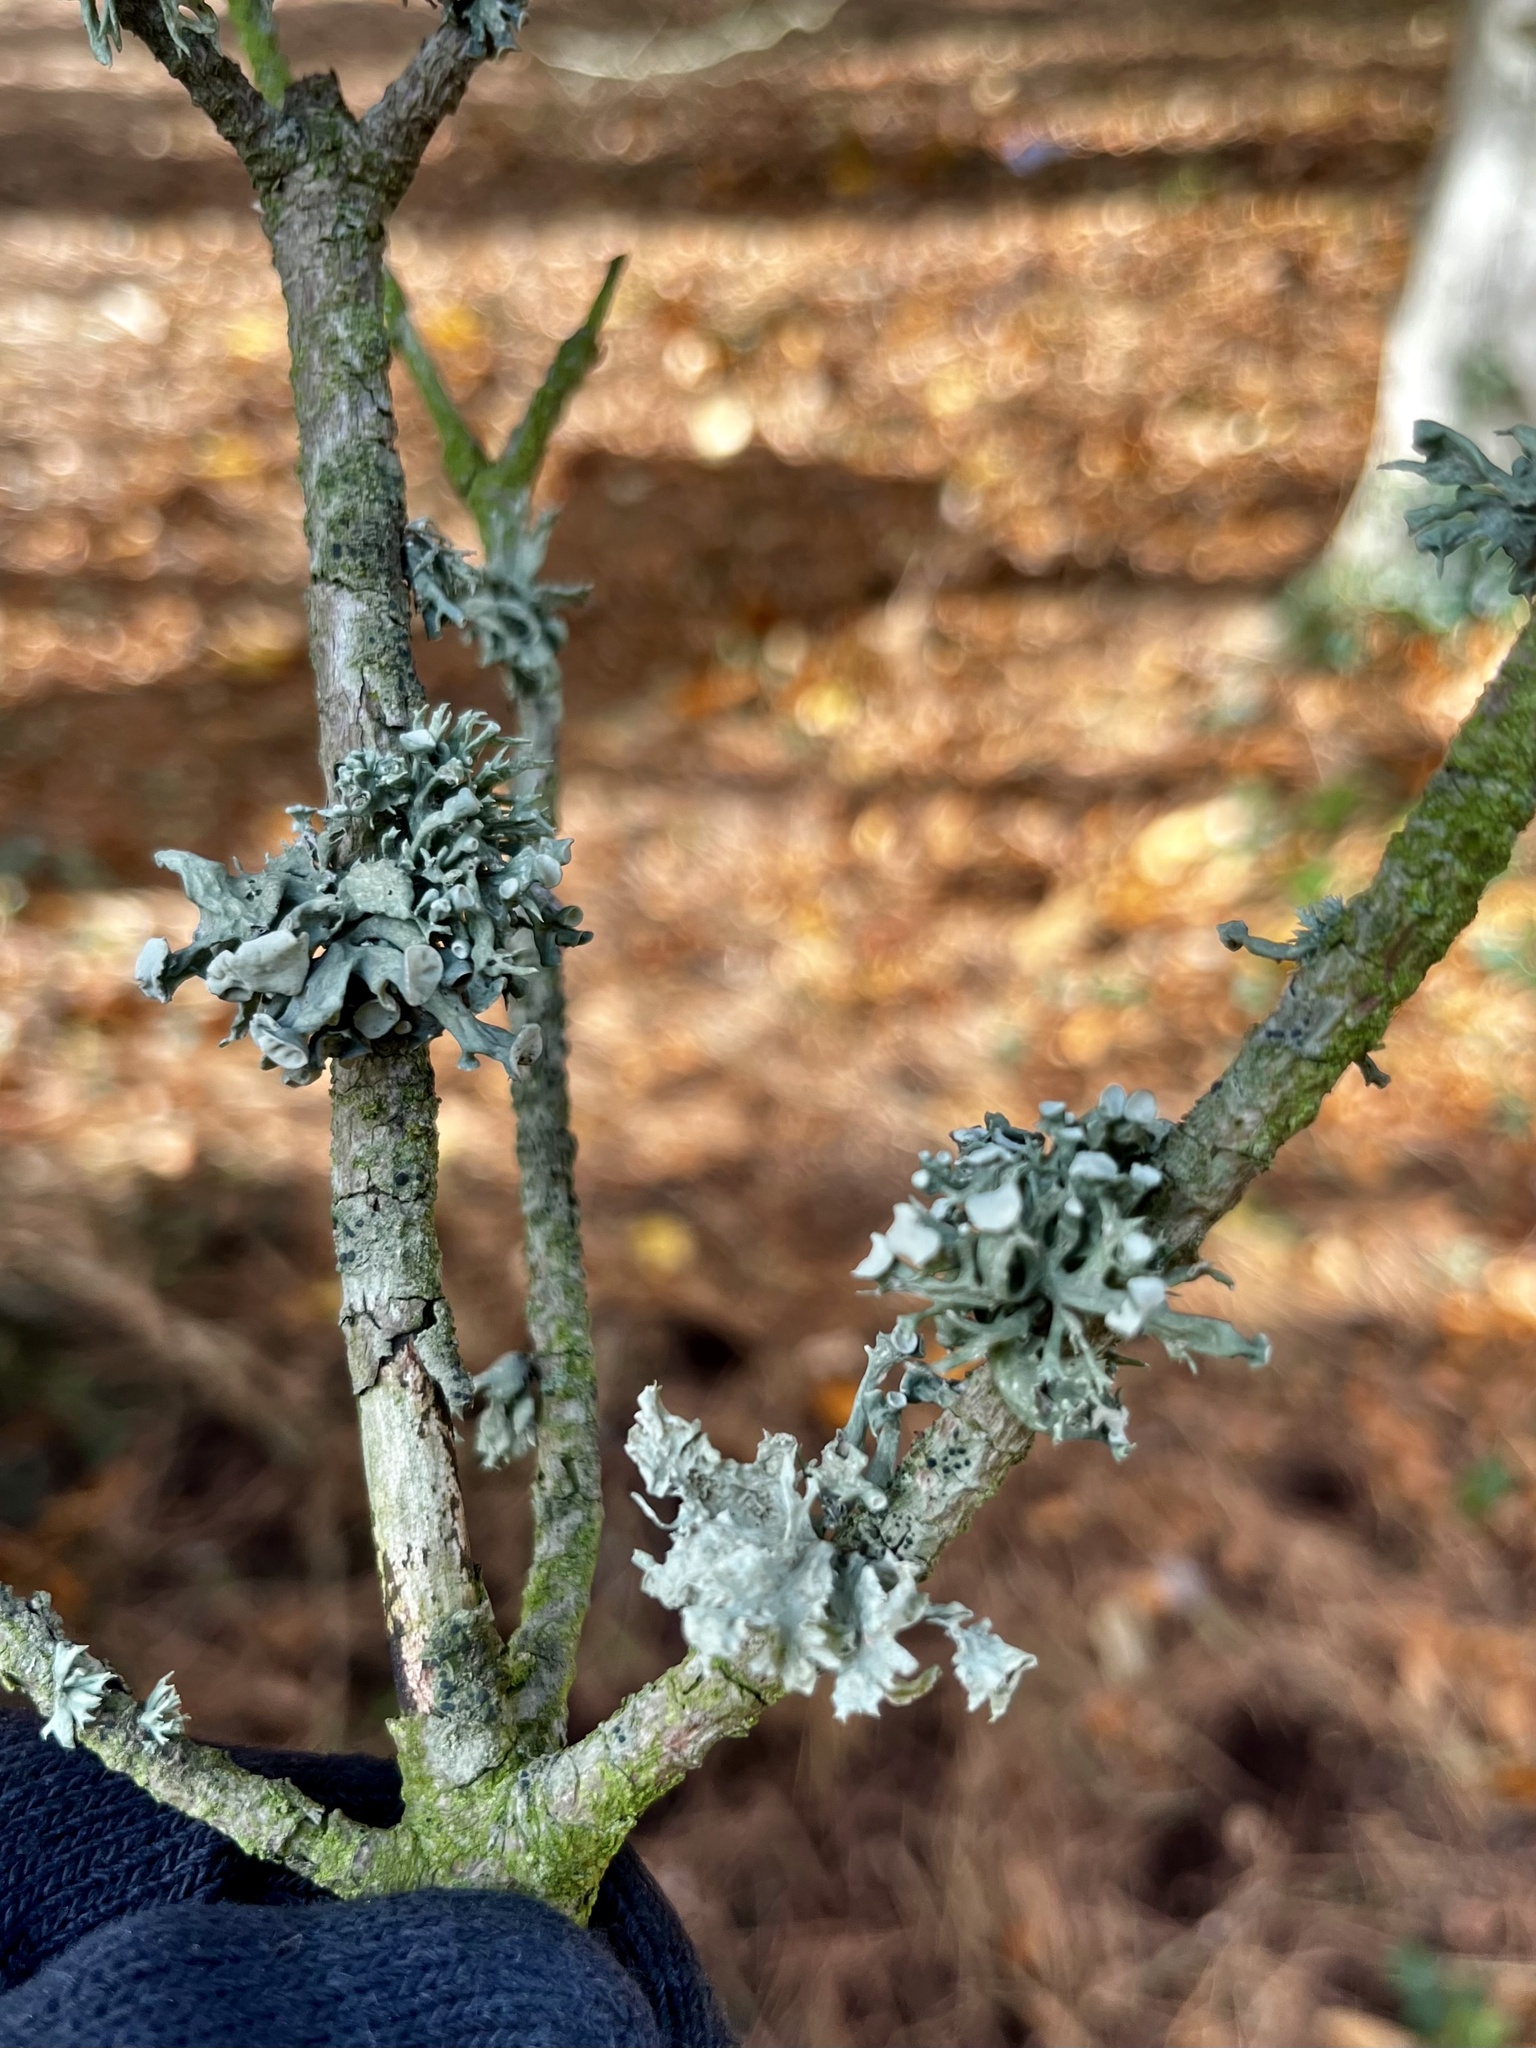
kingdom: Fungi
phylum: Ascomycota
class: Lecanoromycetes
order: Lecanorales
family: Ramalinaceae
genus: Ramalina
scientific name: Ramalina fastigiata
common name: Dotted ribbon lichen
